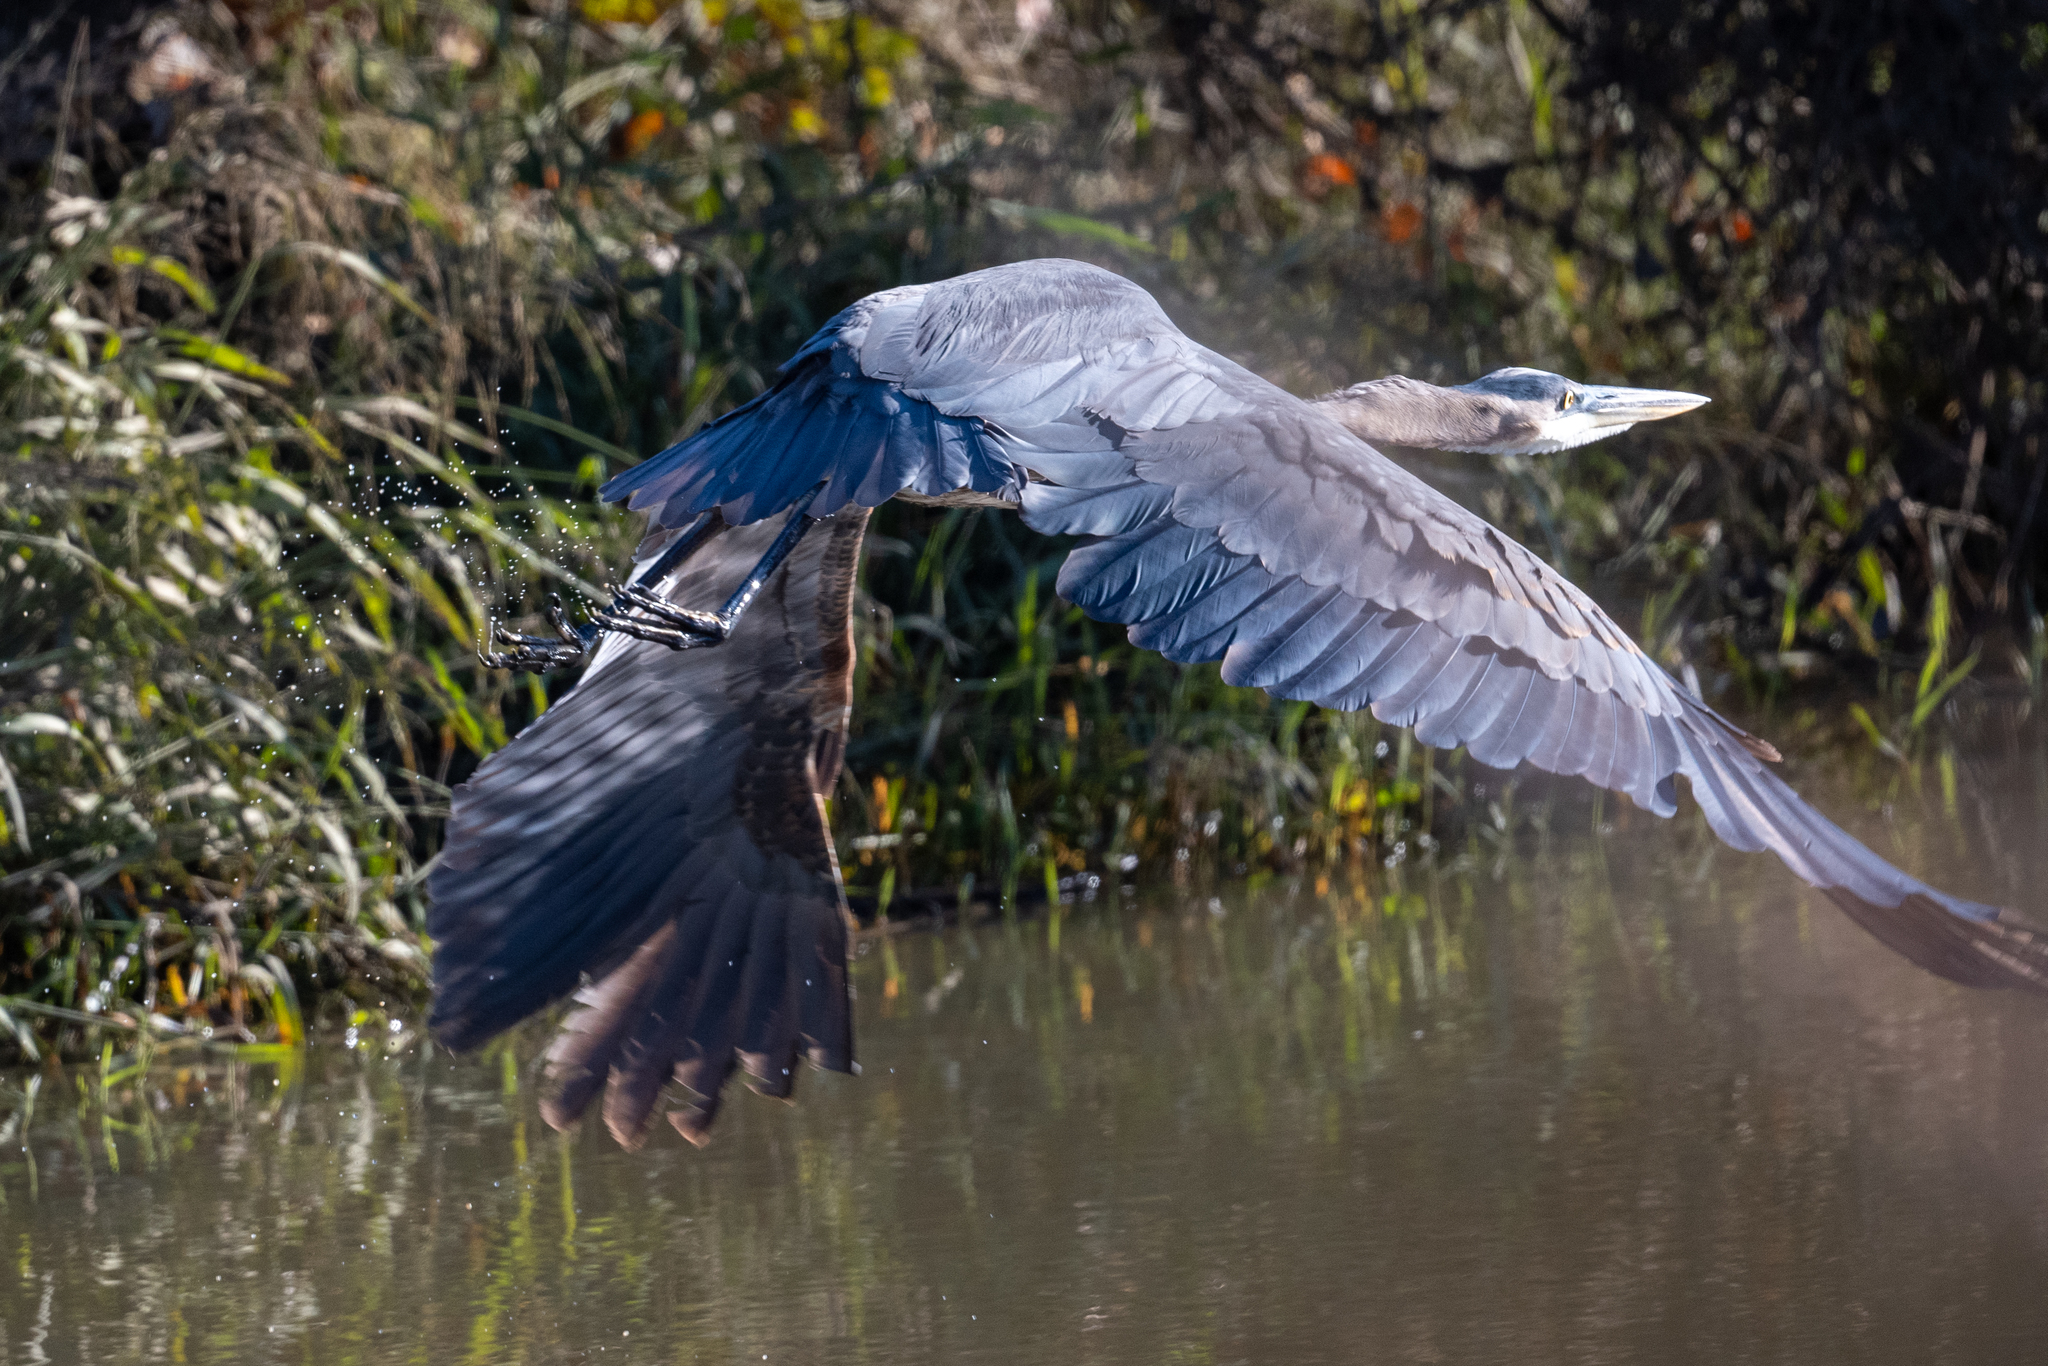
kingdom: Animalia
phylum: Chordata
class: Aves
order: Pelecaniformes
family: Ardeidae
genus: Ardea
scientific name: Ardea herodias
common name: Great blue heron
